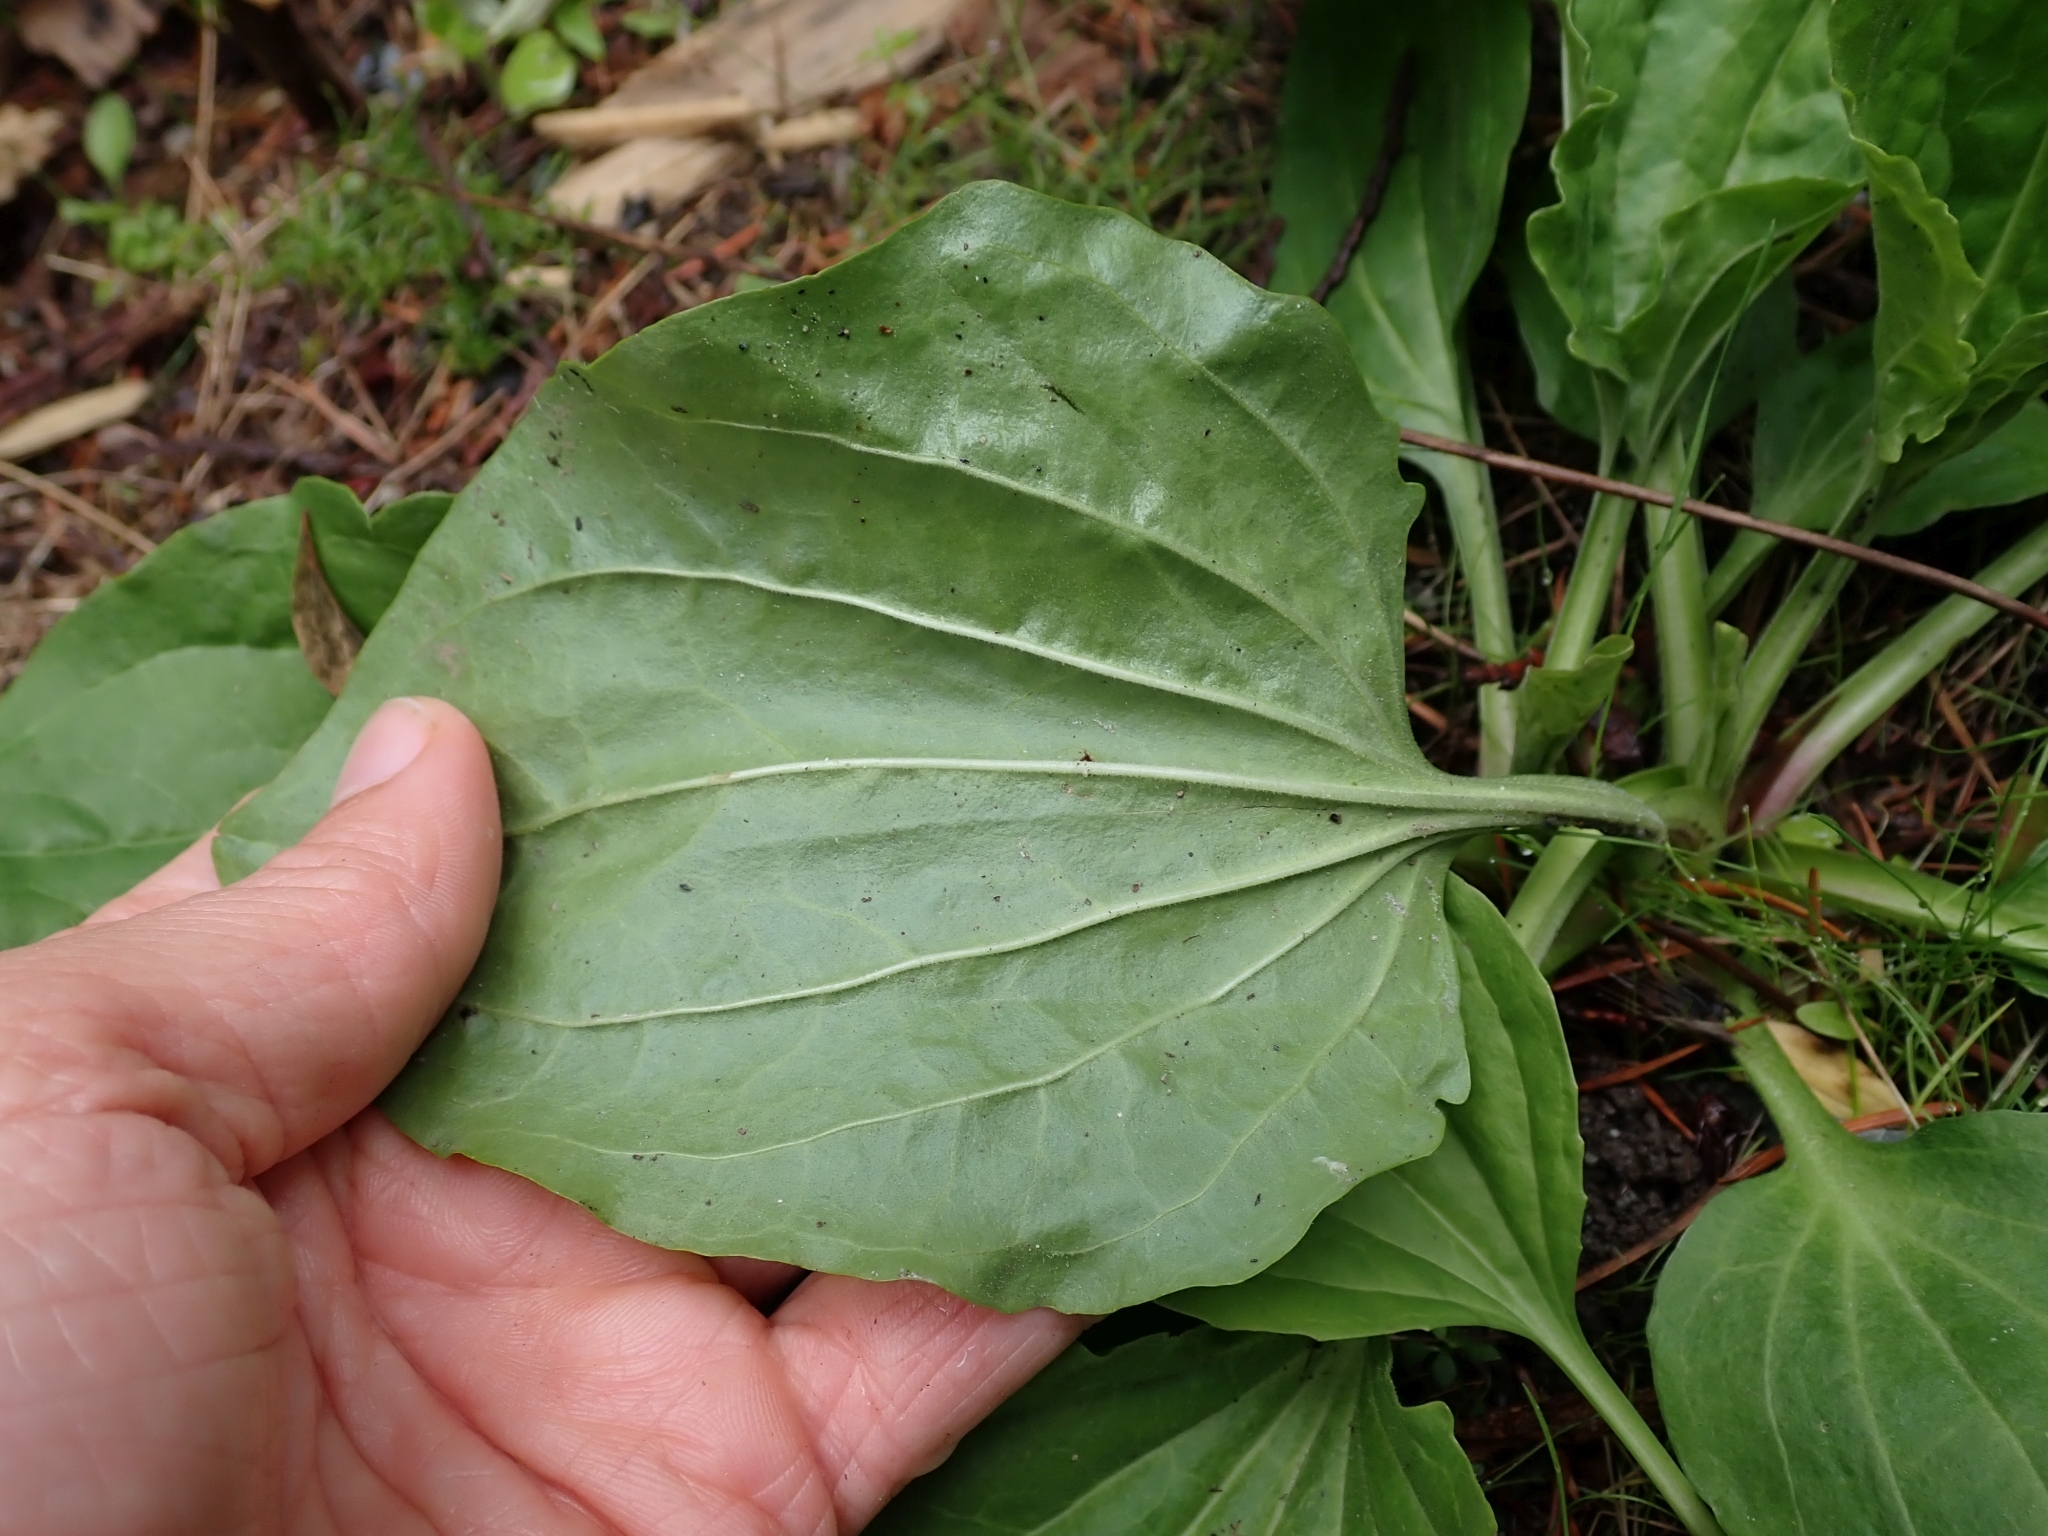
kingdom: Plantae
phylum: Tracheophyta
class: Magnoliopsida
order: Lamiales
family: Plantaginaceae
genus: Plantago
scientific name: Plantago major
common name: Common plantain
